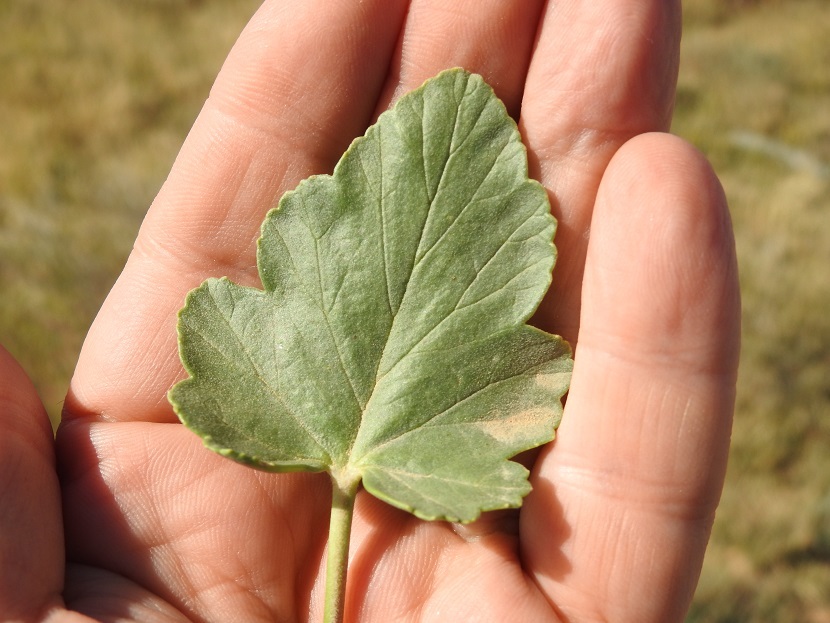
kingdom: Plantae
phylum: Tracheophyta
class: Magnoliopsida
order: Geraniales
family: Geraniaceae
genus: Erodium
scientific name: Erodium glaucophyllum
